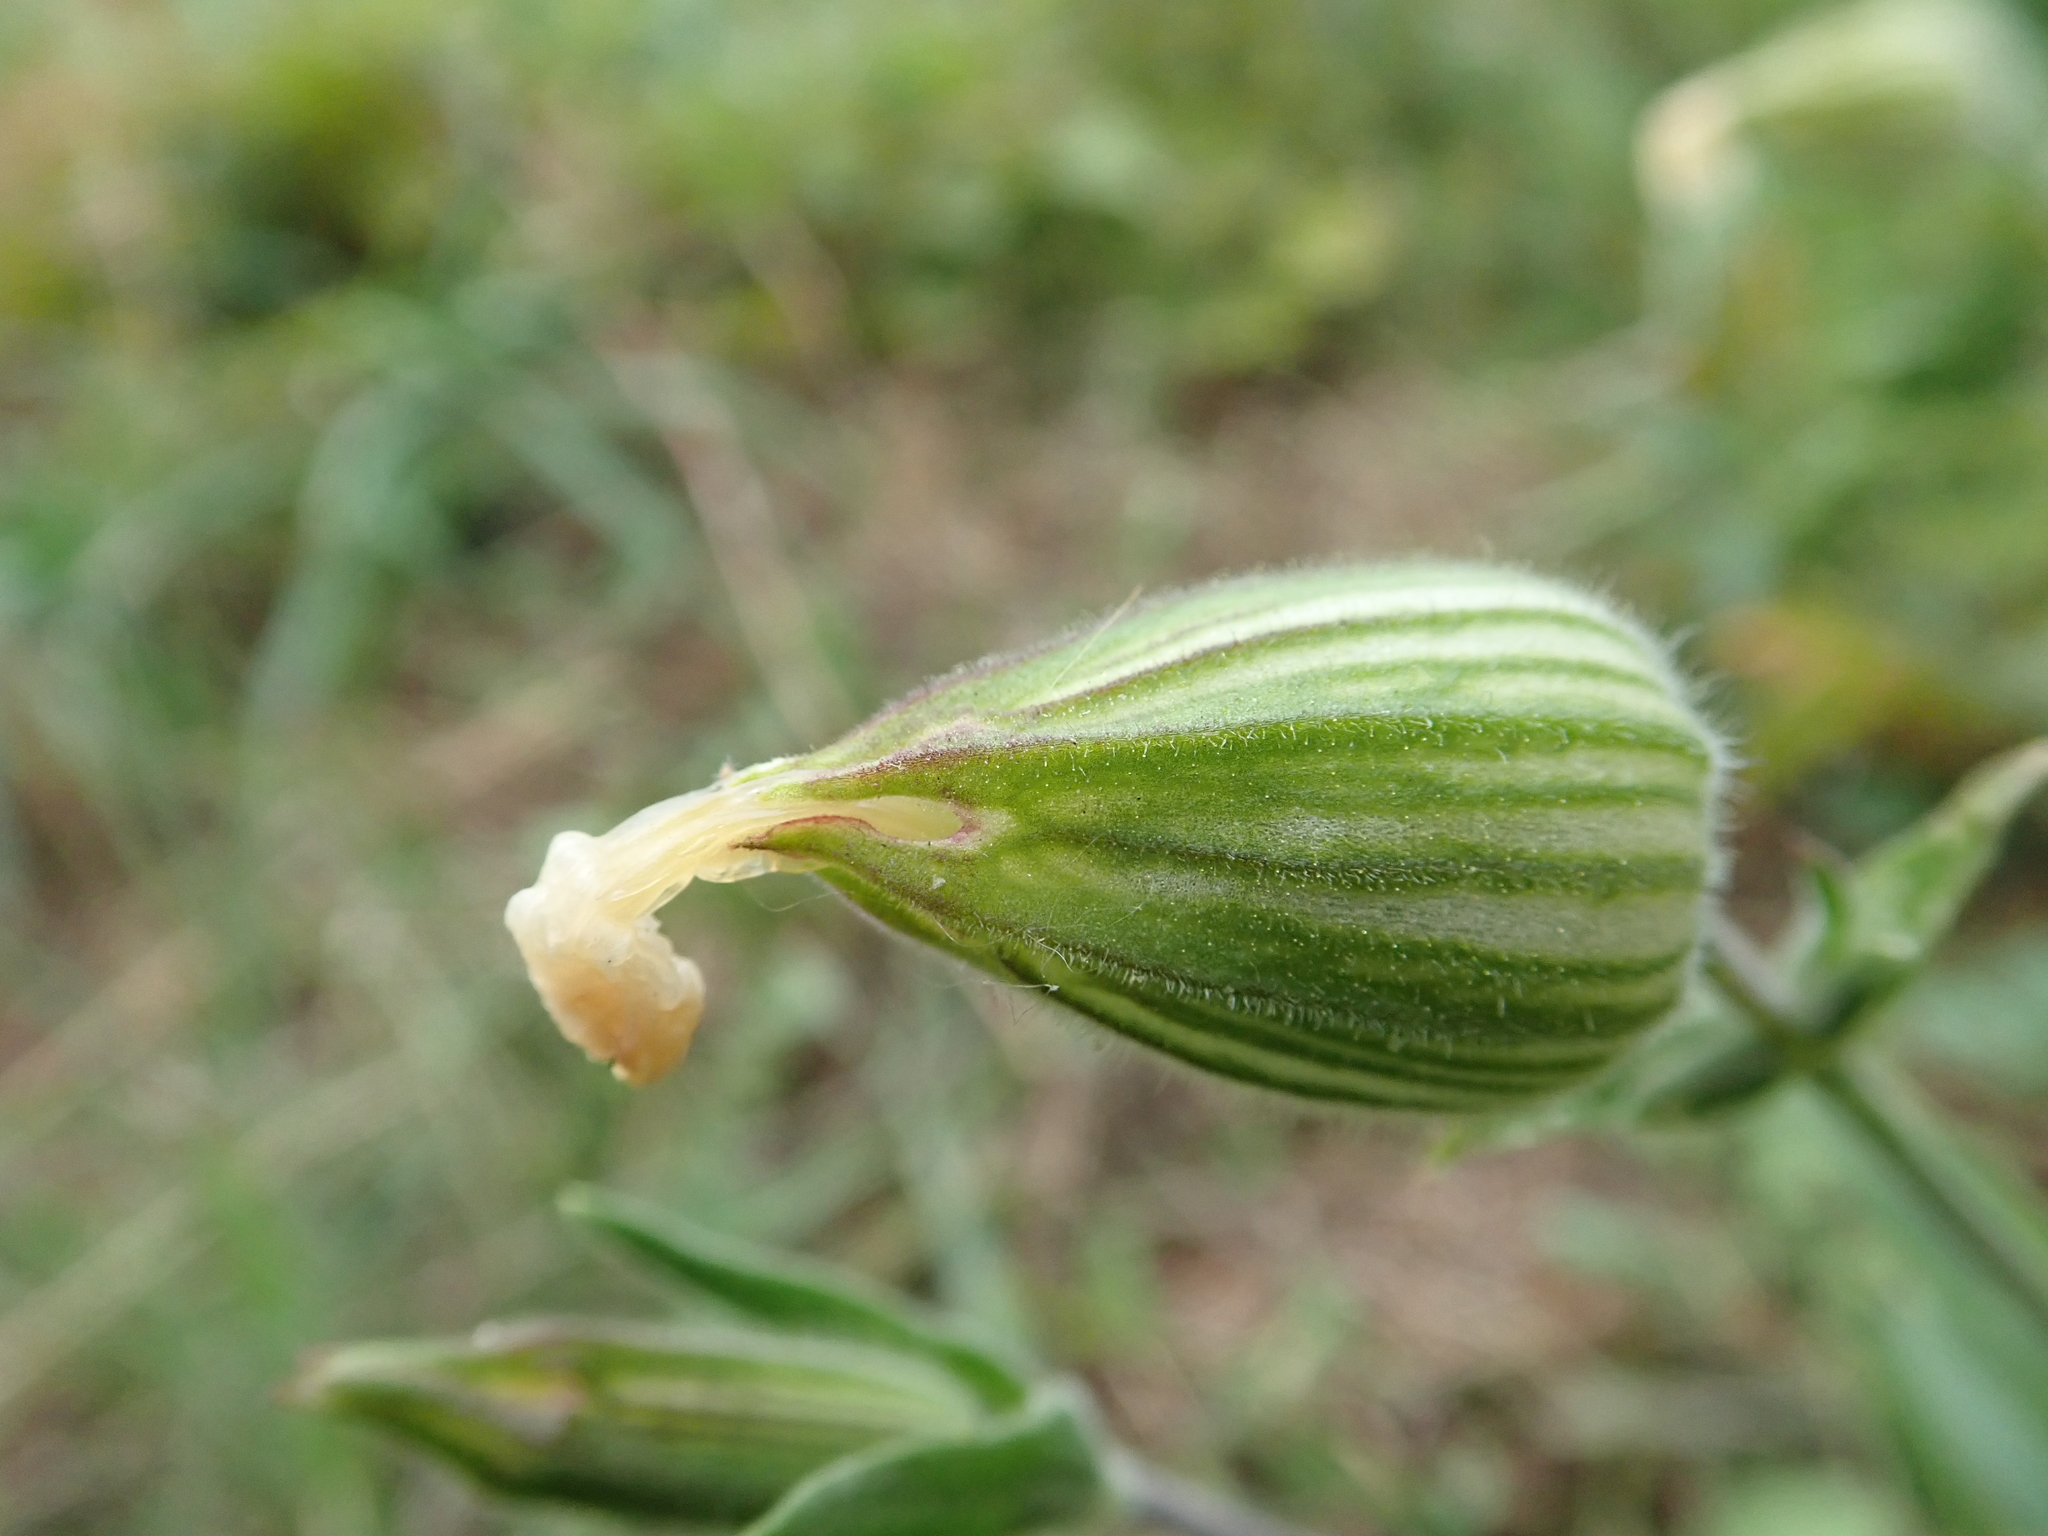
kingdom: Plantae
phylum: Tracheophyta
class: Magnoliopsida
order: Caryophyllales
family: Caryophyllaceae
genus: Silene
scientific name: Silene latifolia
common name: White campion
